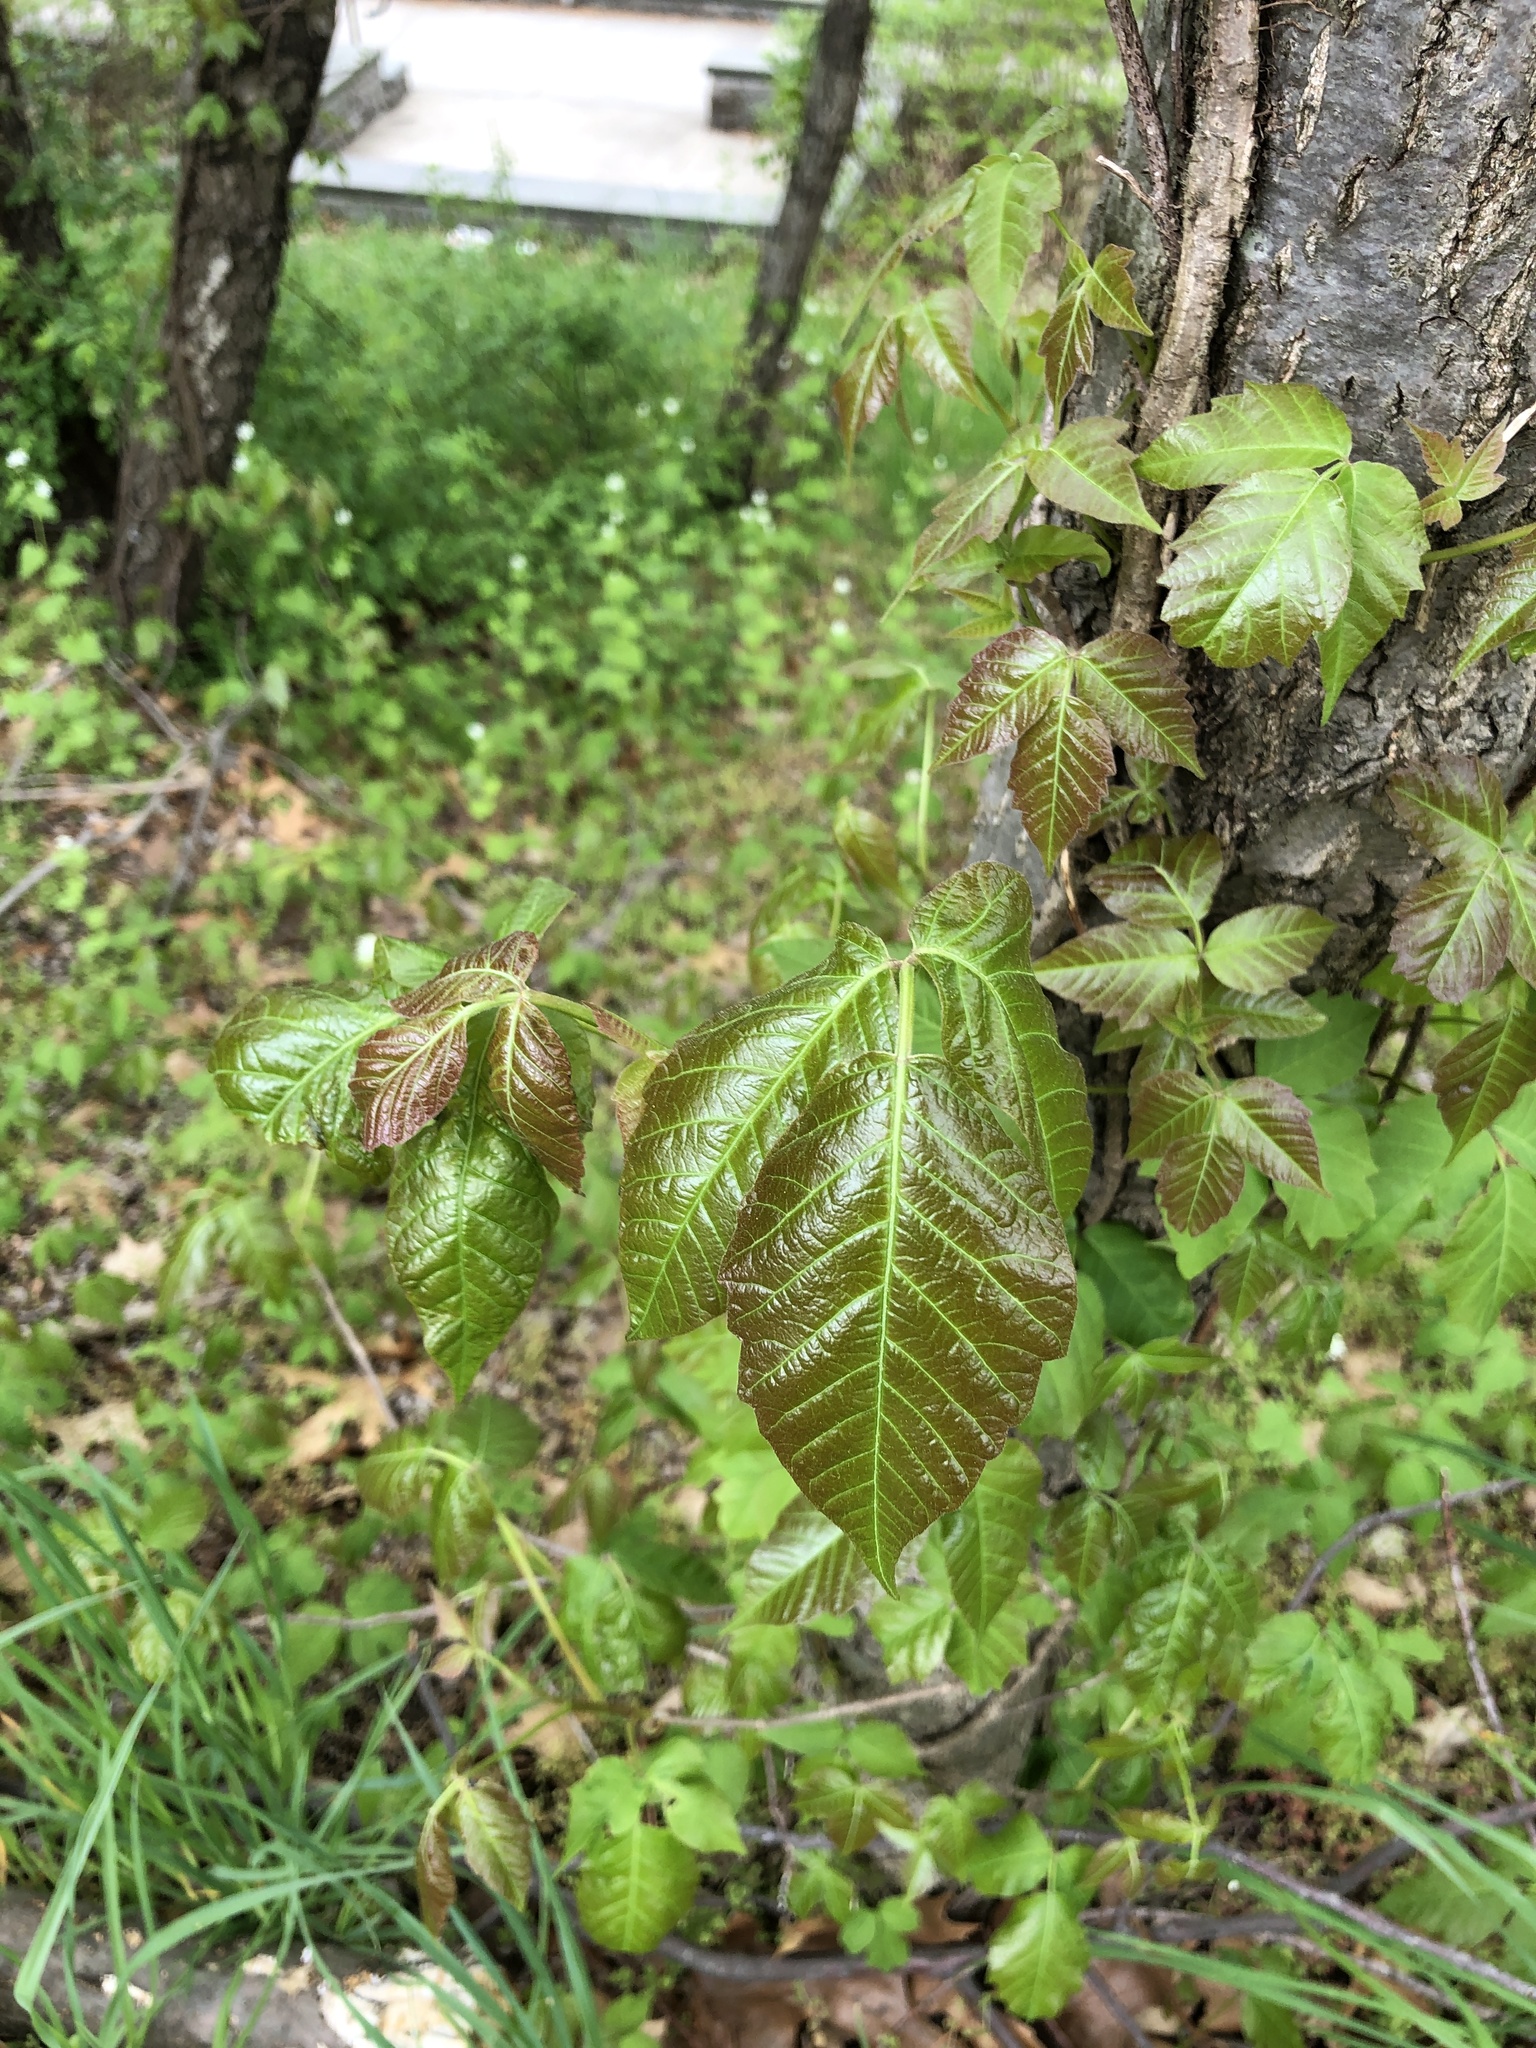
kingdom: Plantae
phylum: Tracheophyta
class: Magnoliopsida
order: Sapindales
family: Anacardiaceae
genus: Toxicodendron
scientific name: Toxicodendron radicans
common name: Poison ivy
